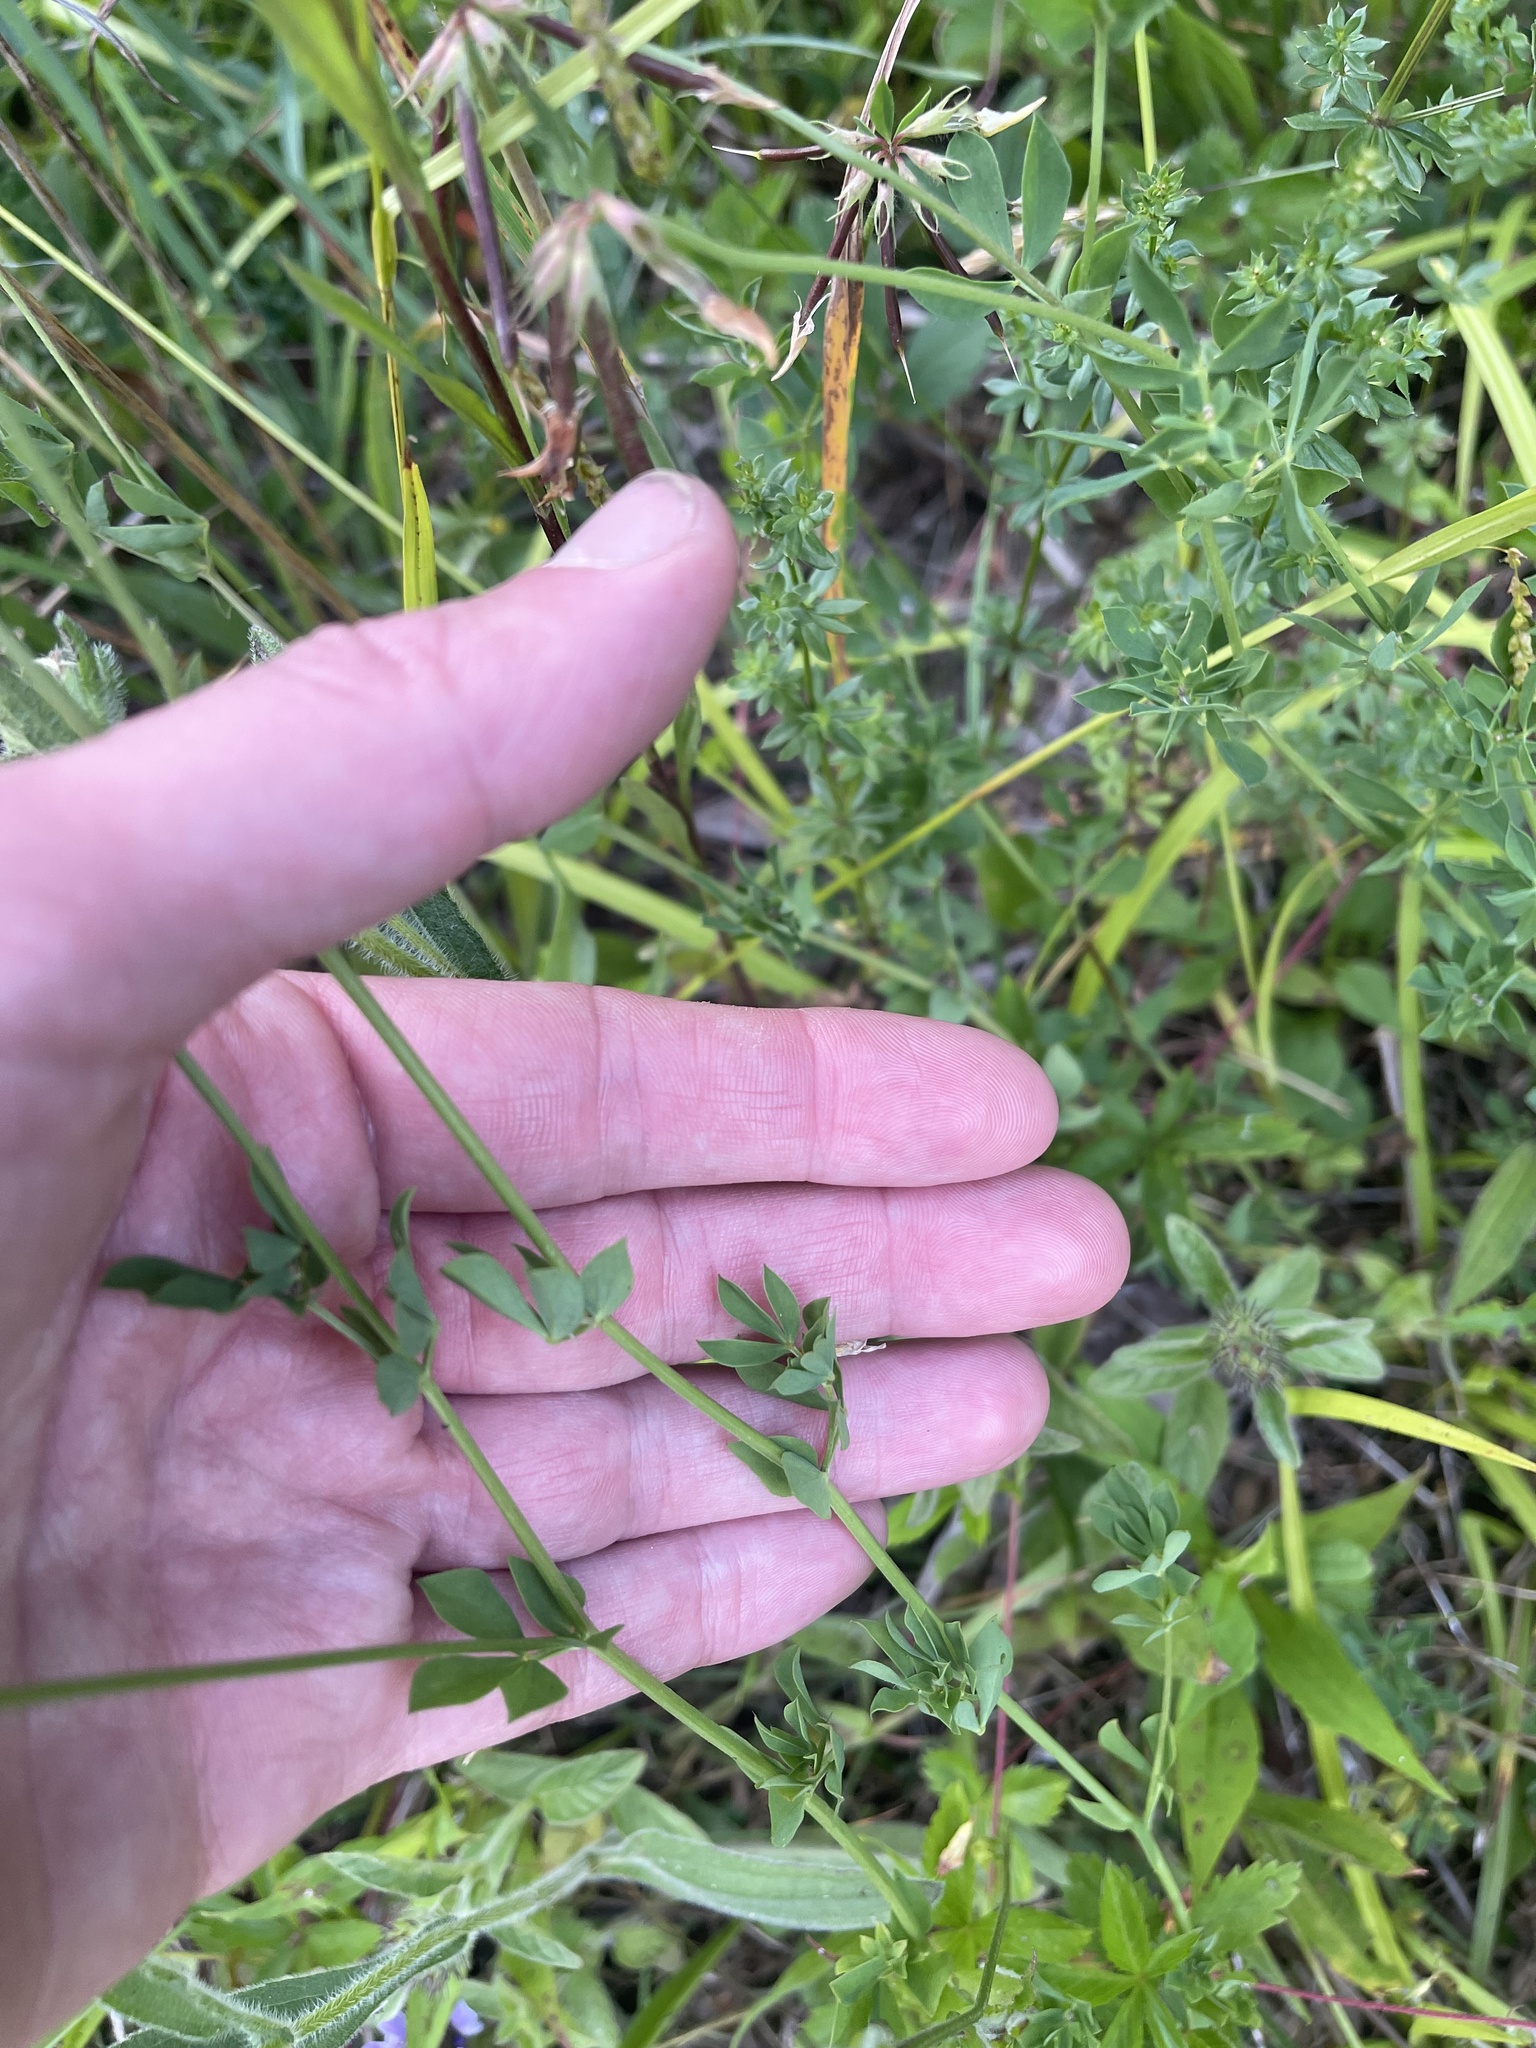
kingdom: Plantae
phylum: Tracheophyta
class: Magnoliopsida
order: Fabales
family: Fabaceae
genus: Lotus
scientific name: Lotus corniculatus
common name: Common bird's-foot-trefoil
